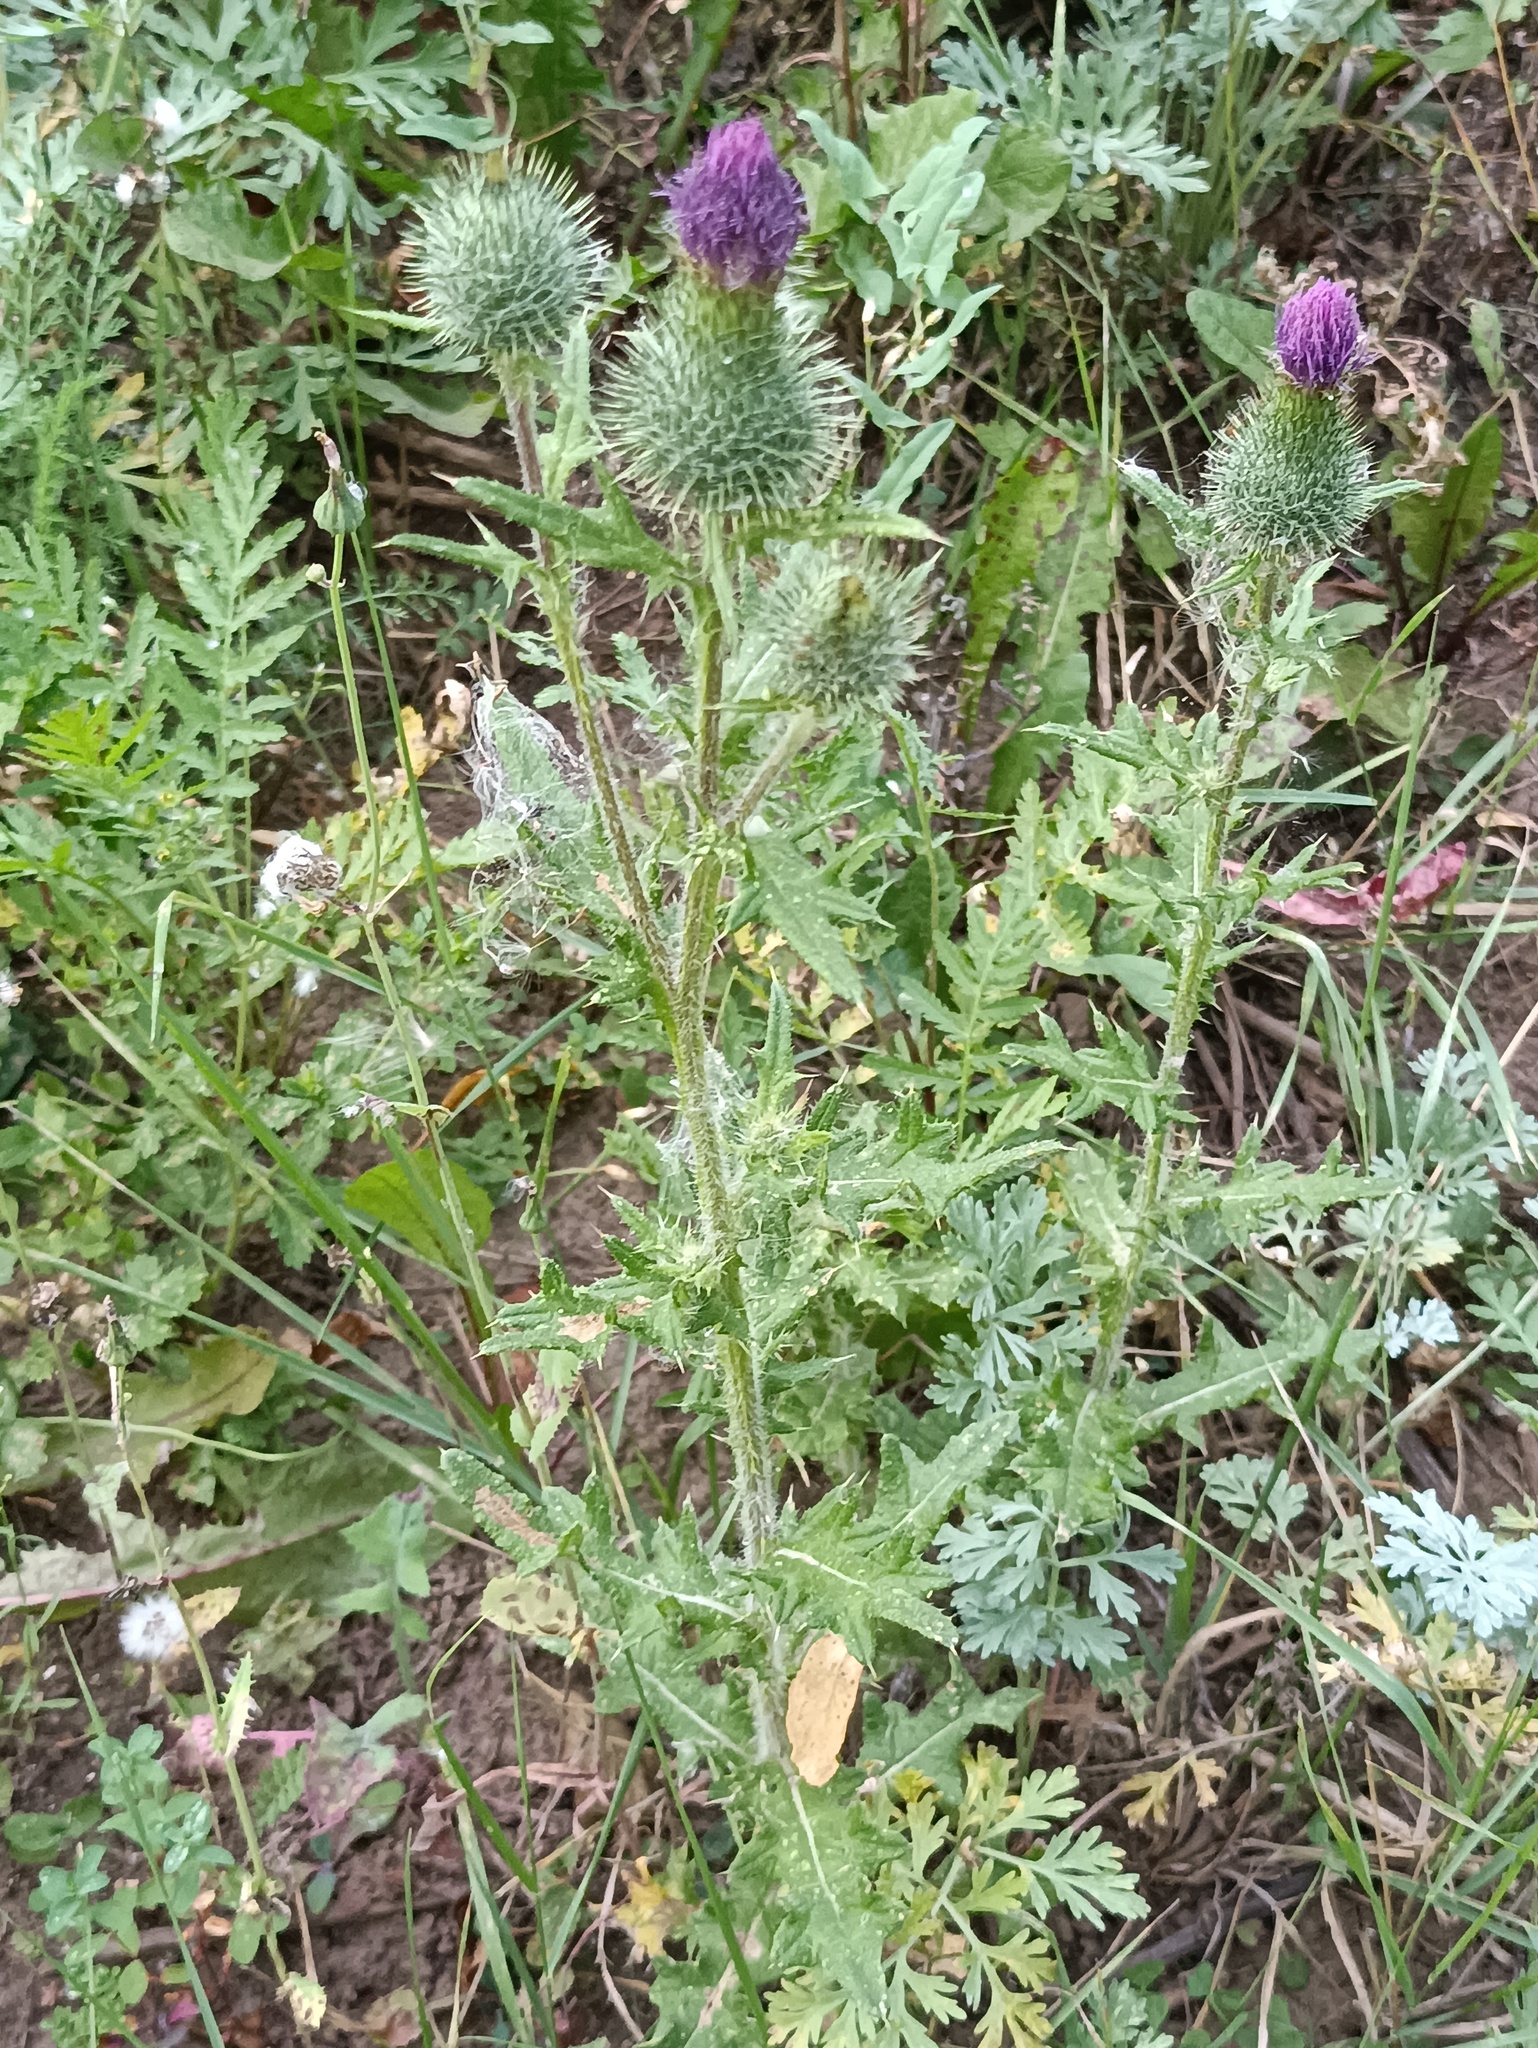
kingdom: Plantae
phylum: Tracheophyta
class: Magnoliopsida
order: Asterales
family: Asteraceae
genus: Cirsium
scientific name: Cirsium vulgare
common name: Bull thistle
